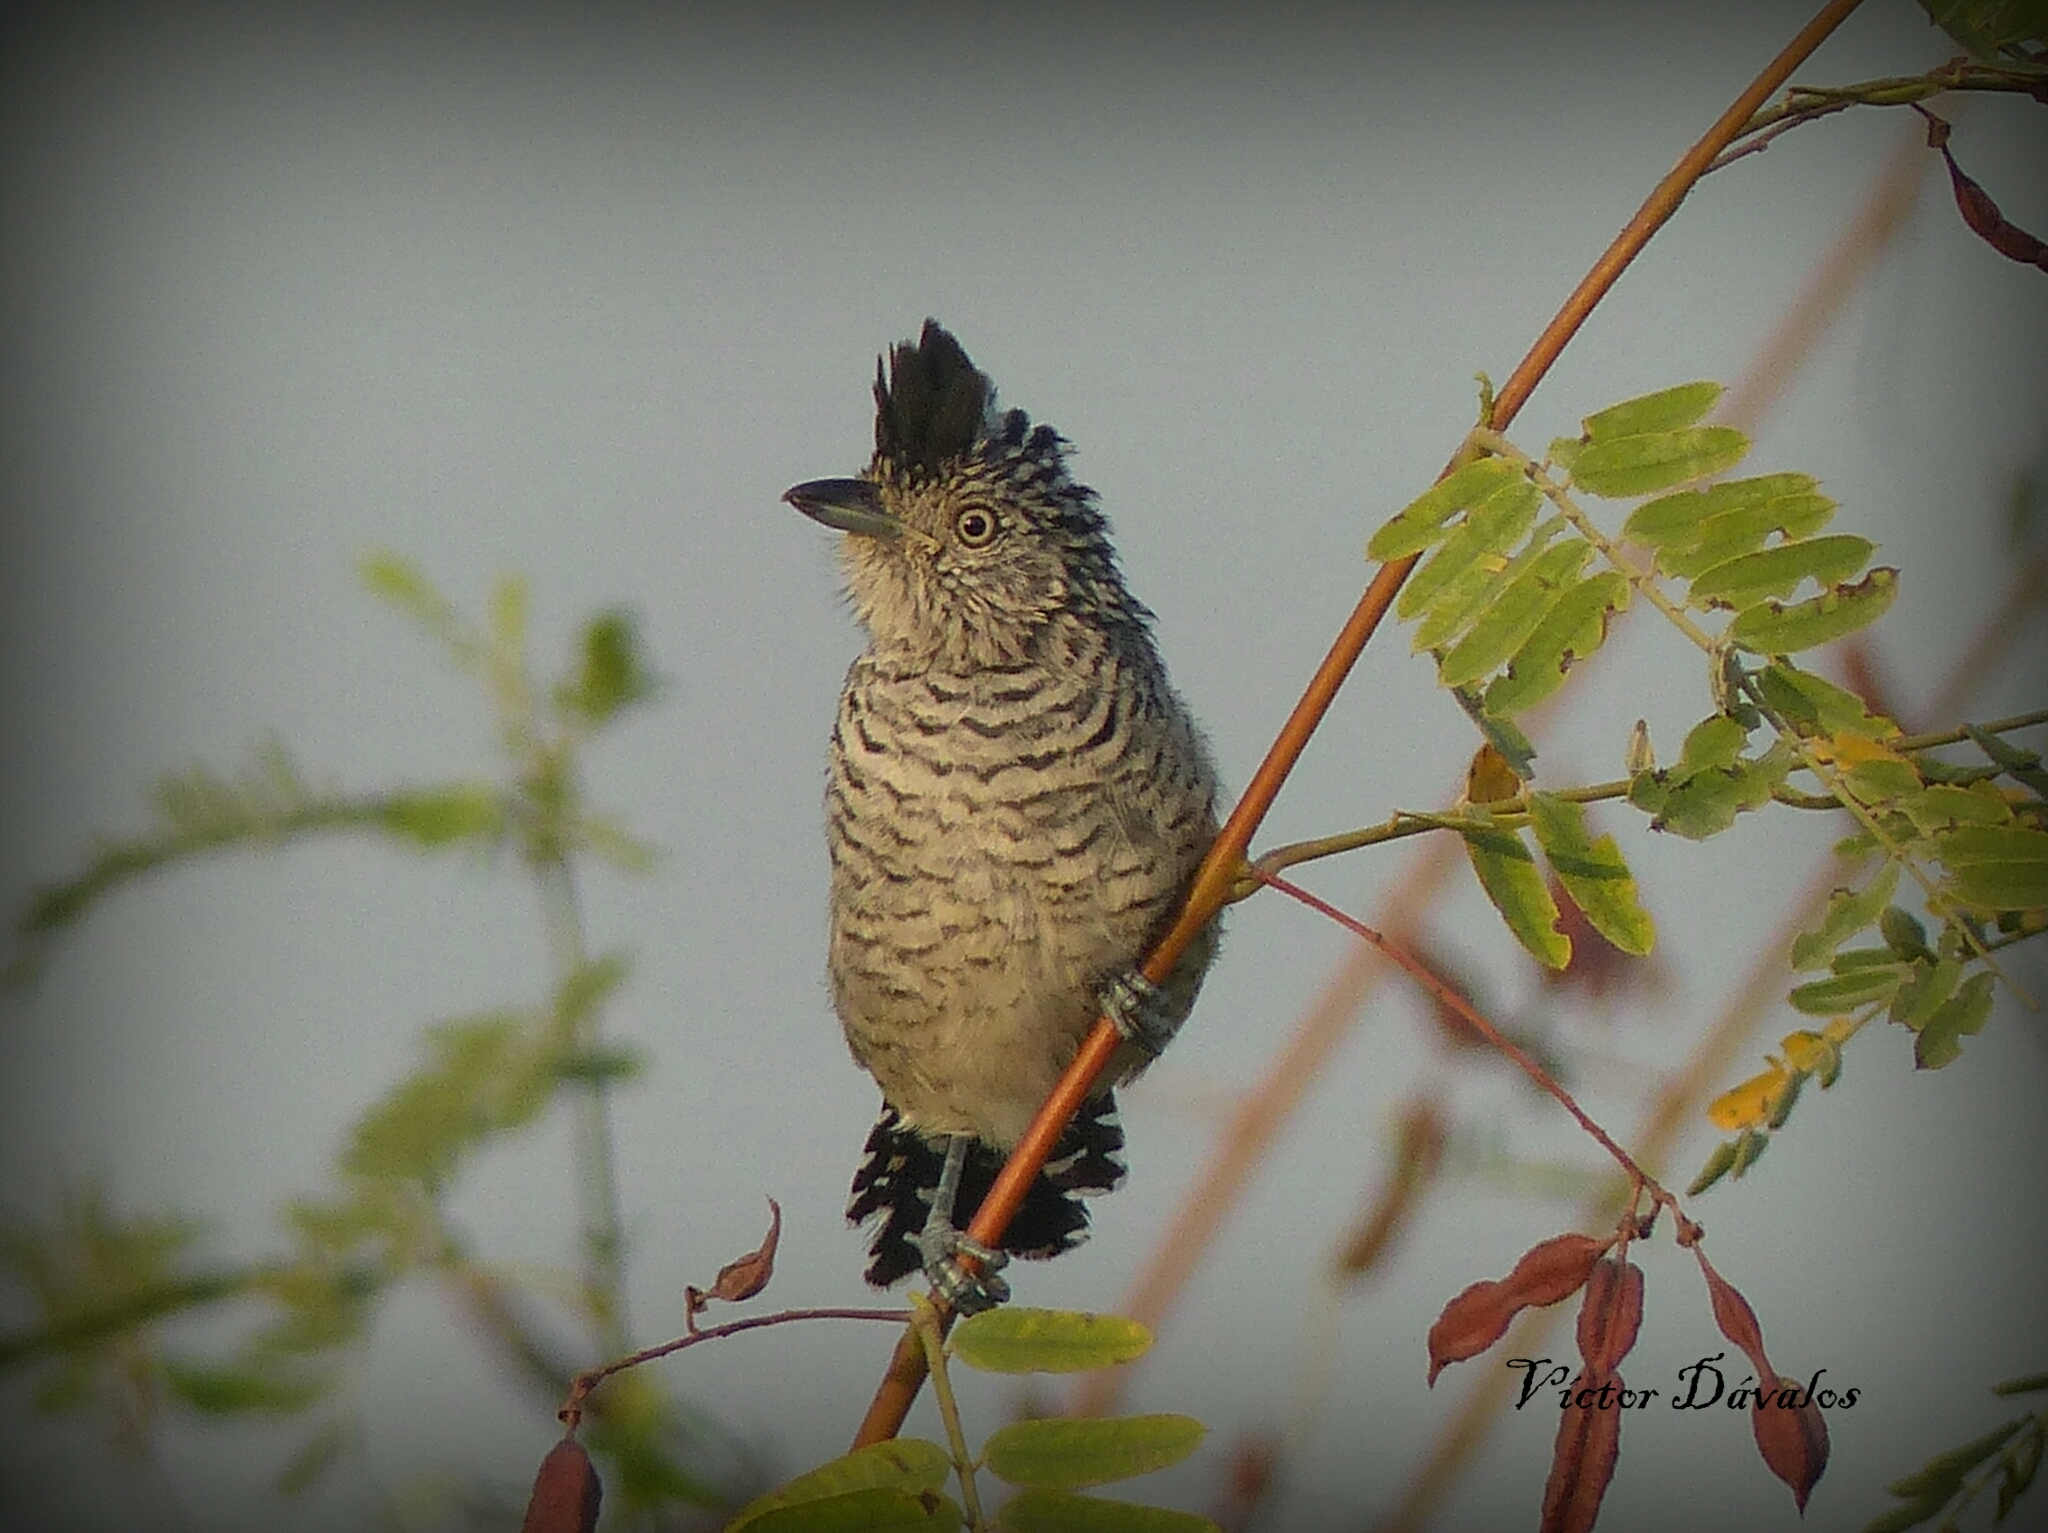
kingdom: Animalia
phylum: Chordata
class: Aves
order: Passeriformes
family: Thamnophilidae
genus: Thamnophilus
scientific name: Thamnophilus doliatus
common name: Barred antshrike
